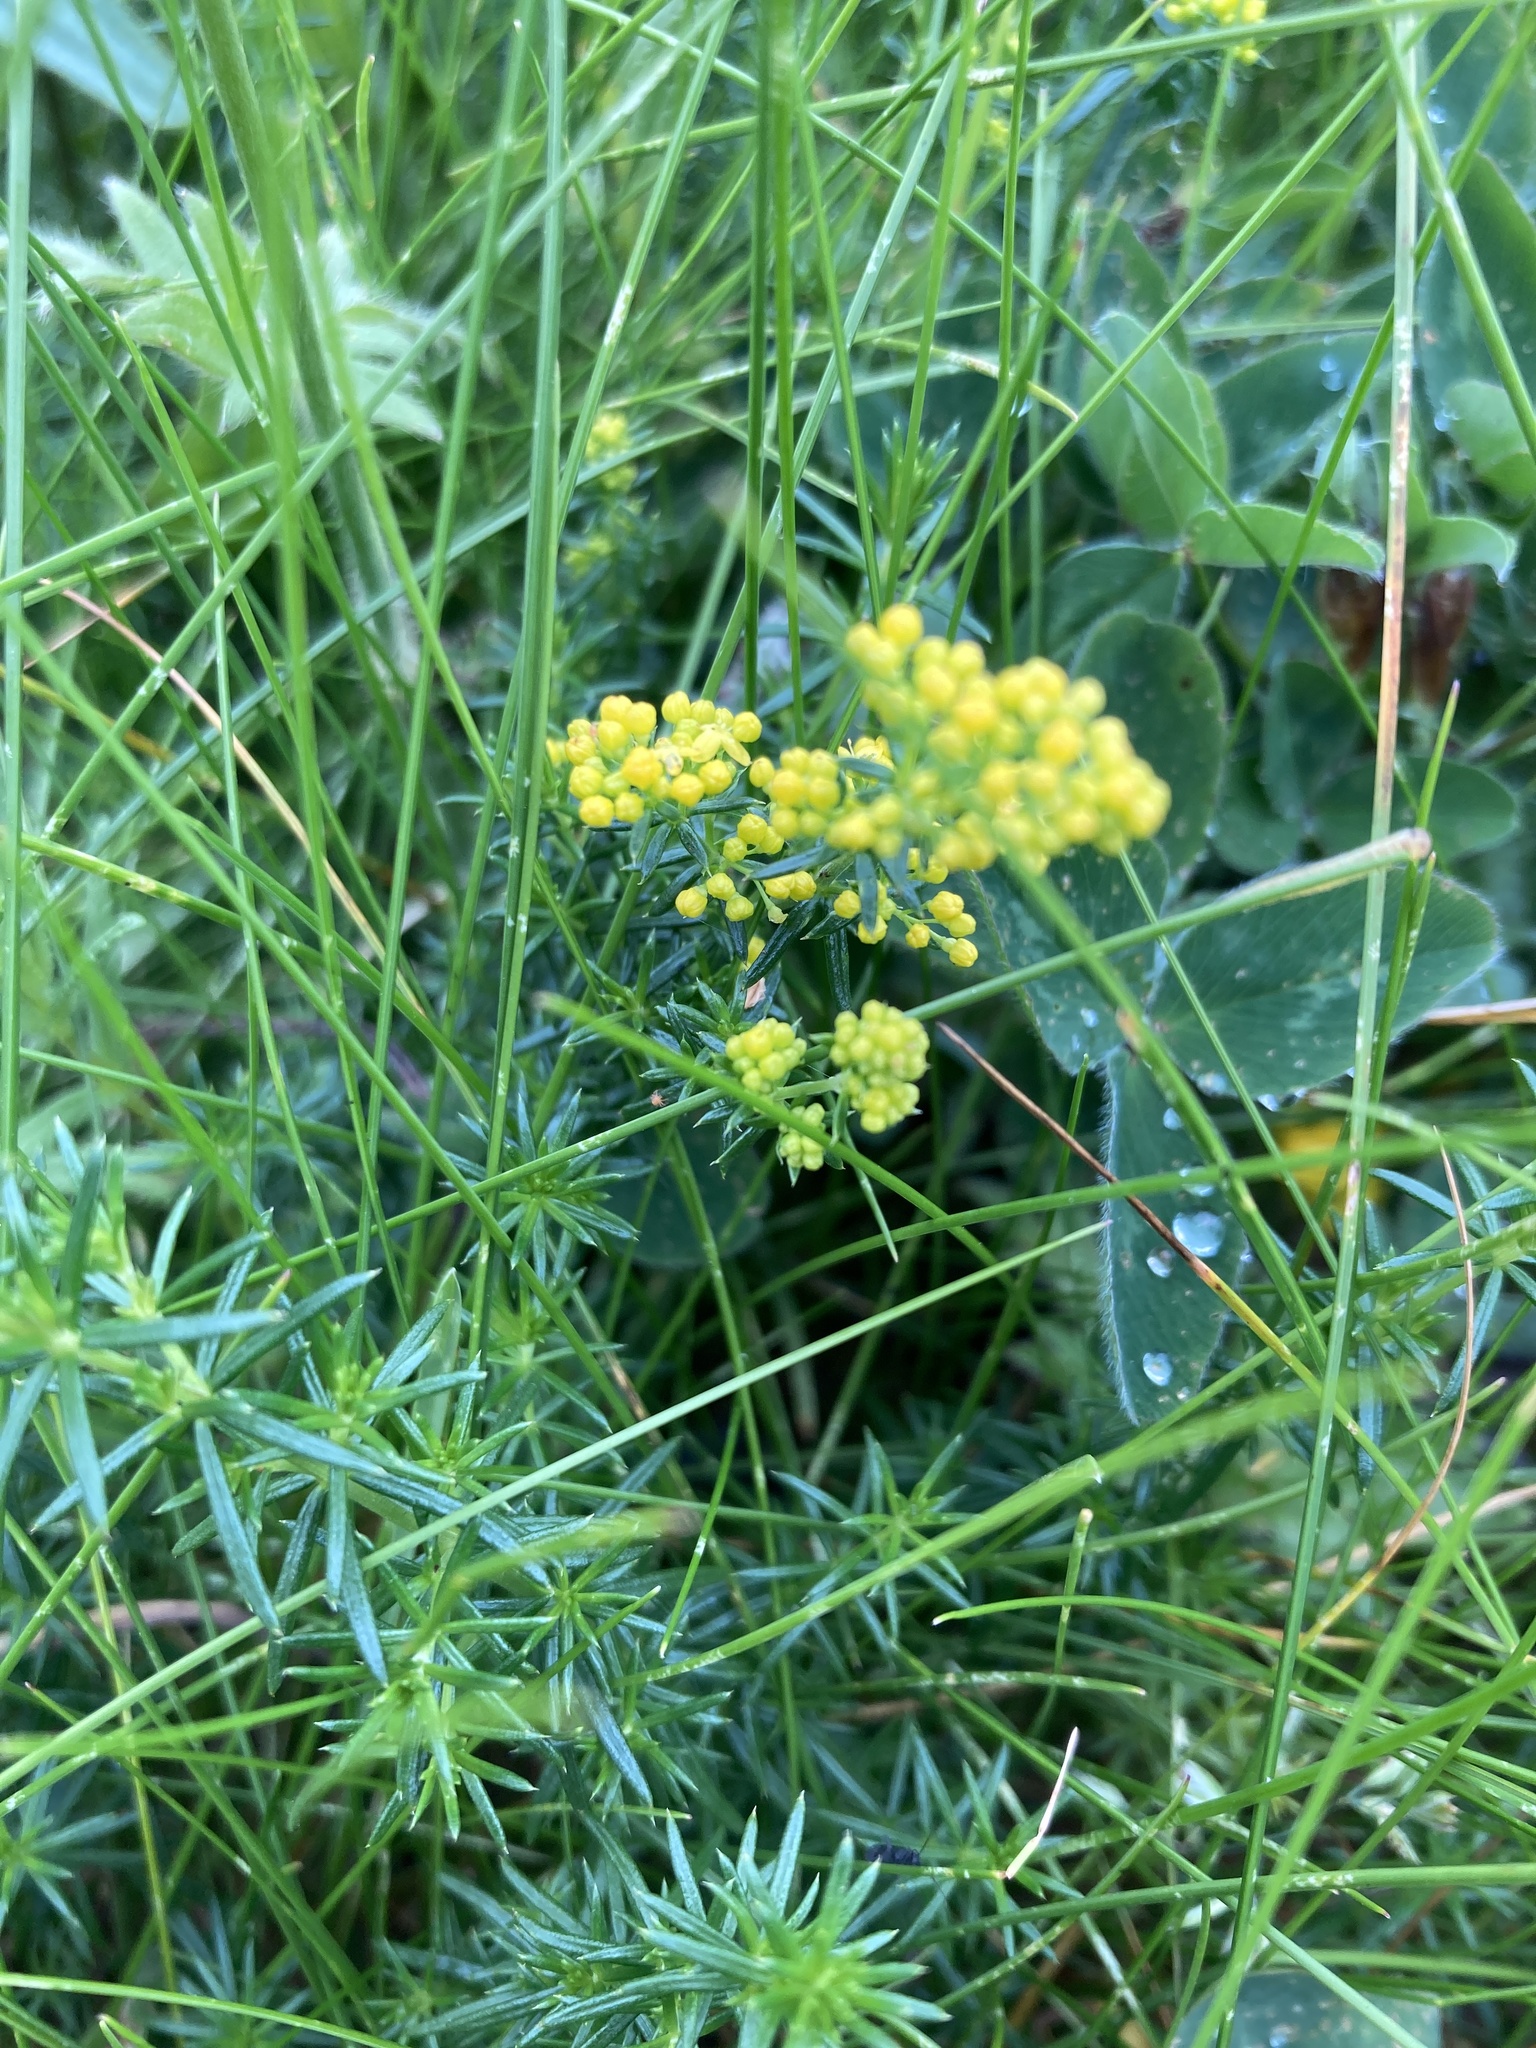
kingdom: Plantae
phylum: Tracheophyta
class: Magnoliopsida
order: Gentianales
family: Rubiaceae
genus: Galium
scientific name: Galium verum
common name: Lady's bedstraw
